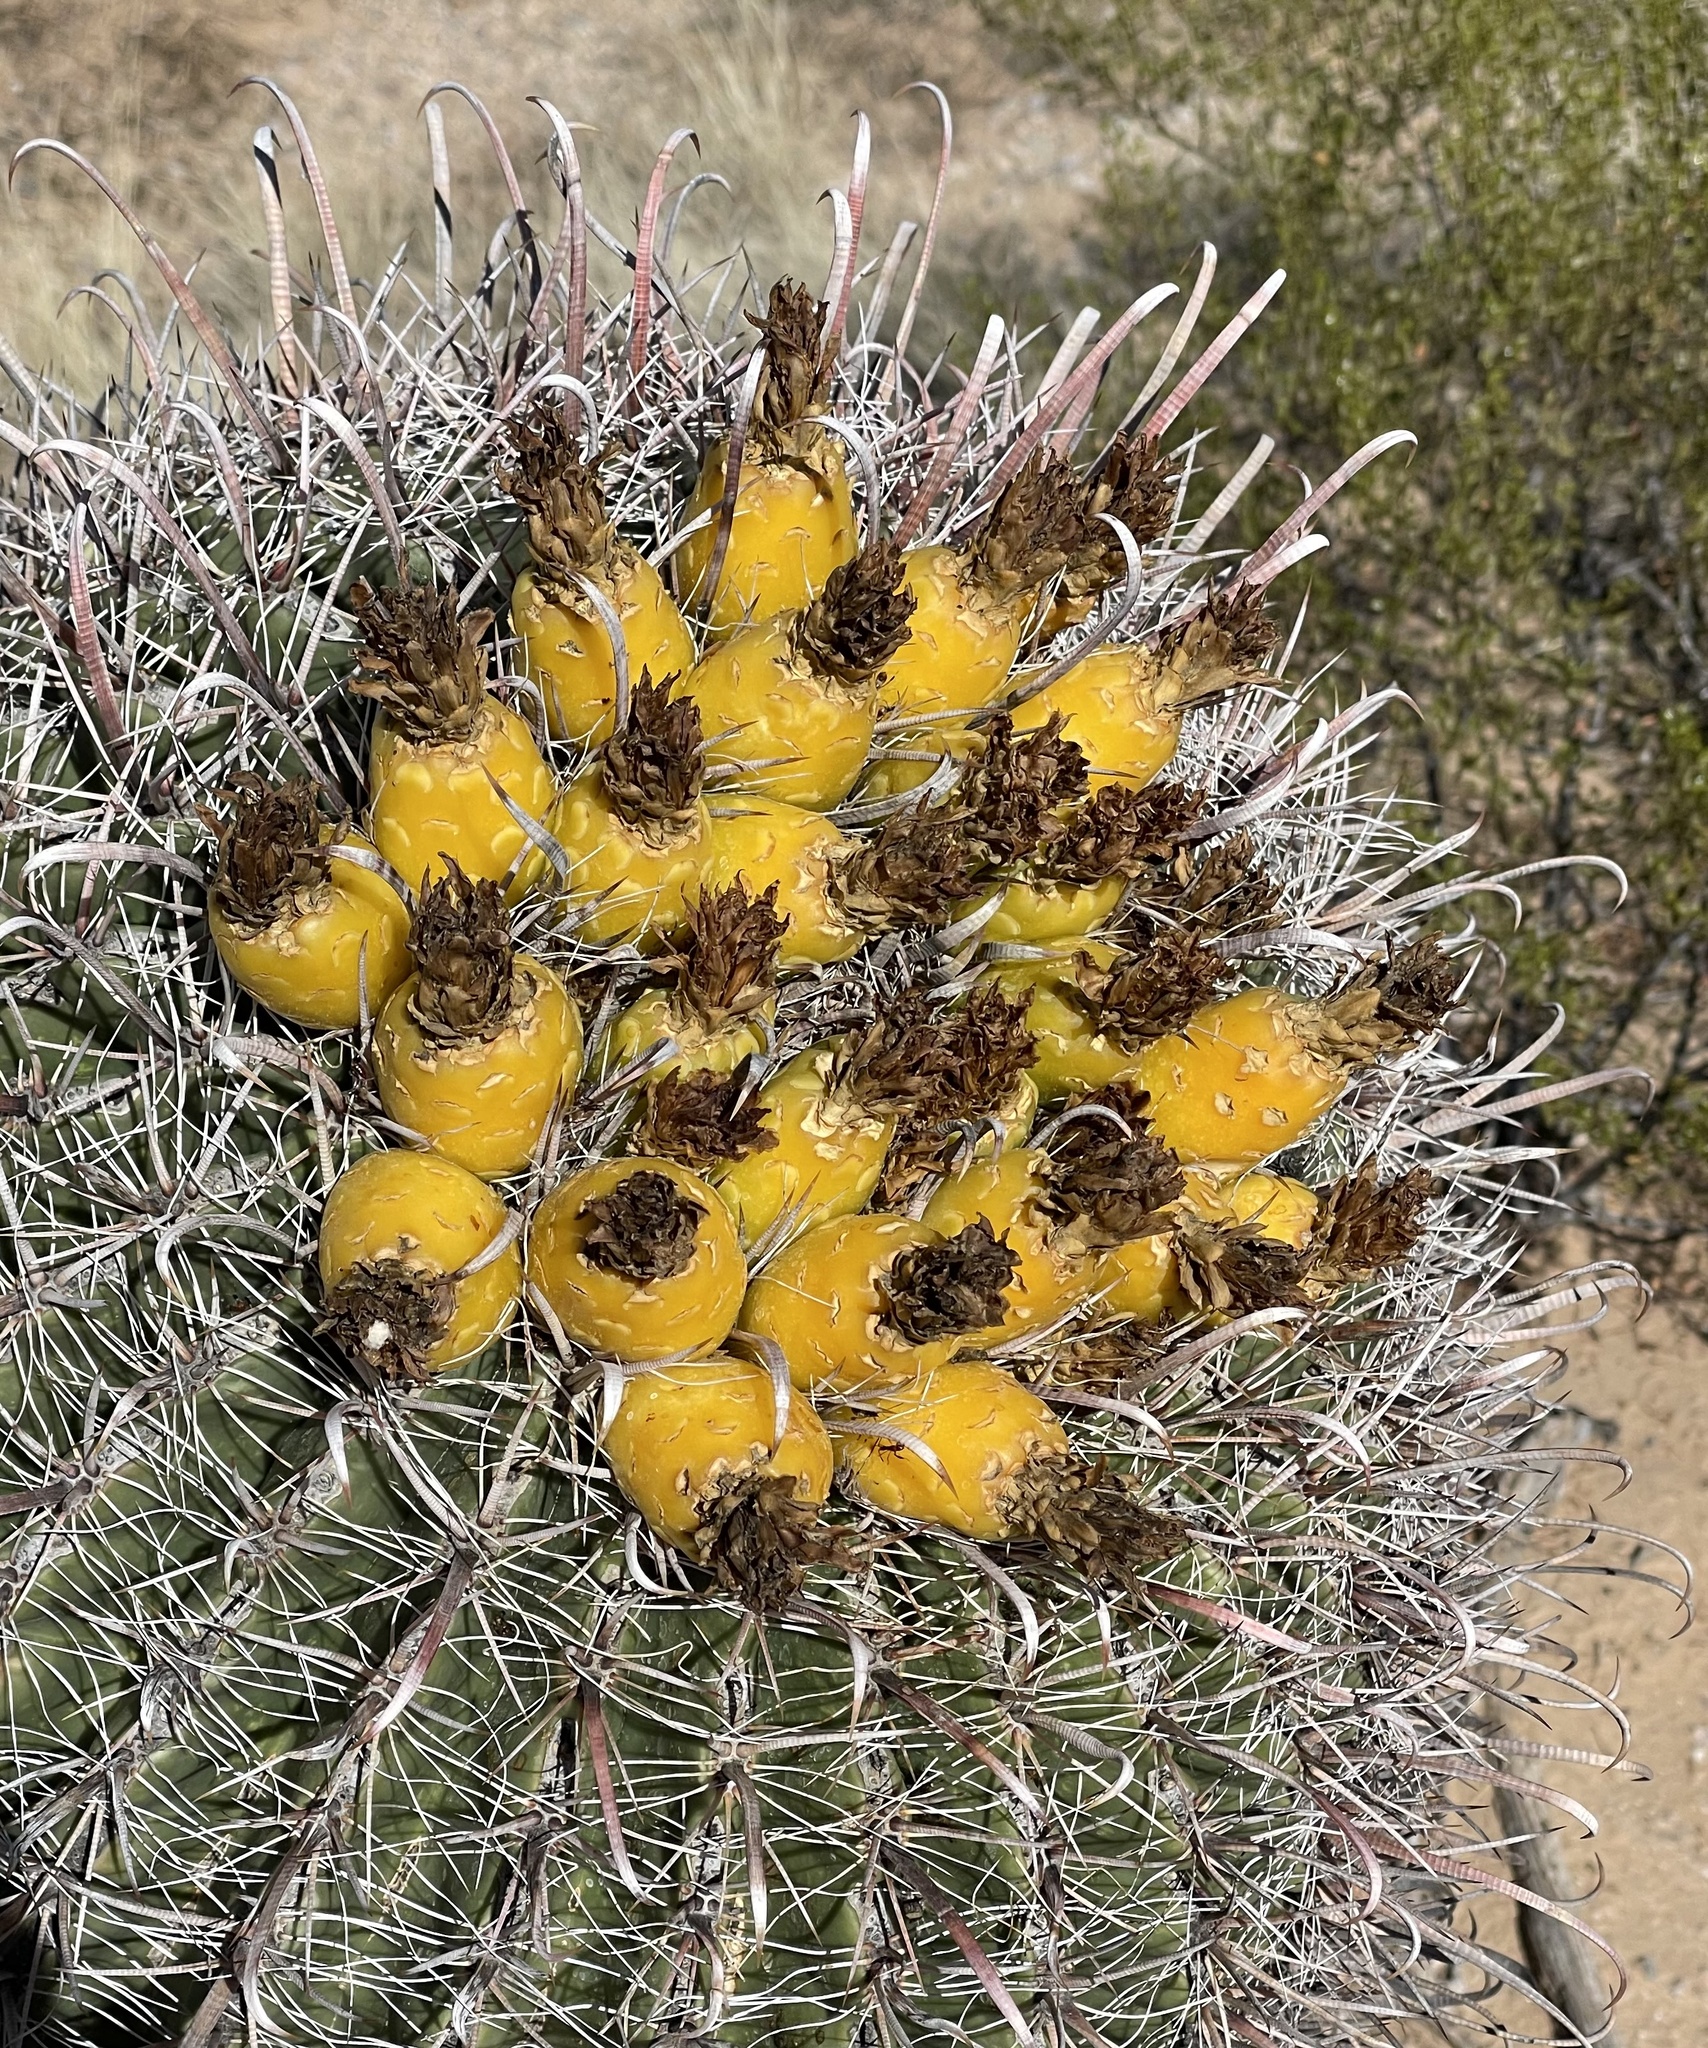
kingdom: Plantae
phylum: Tracheophyta
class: Magnoliopsida
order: Caryophyllales
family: Cactaceae
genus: Ferocactus
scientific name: Ferocactus wislizeni
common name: Candy barrel cactus
